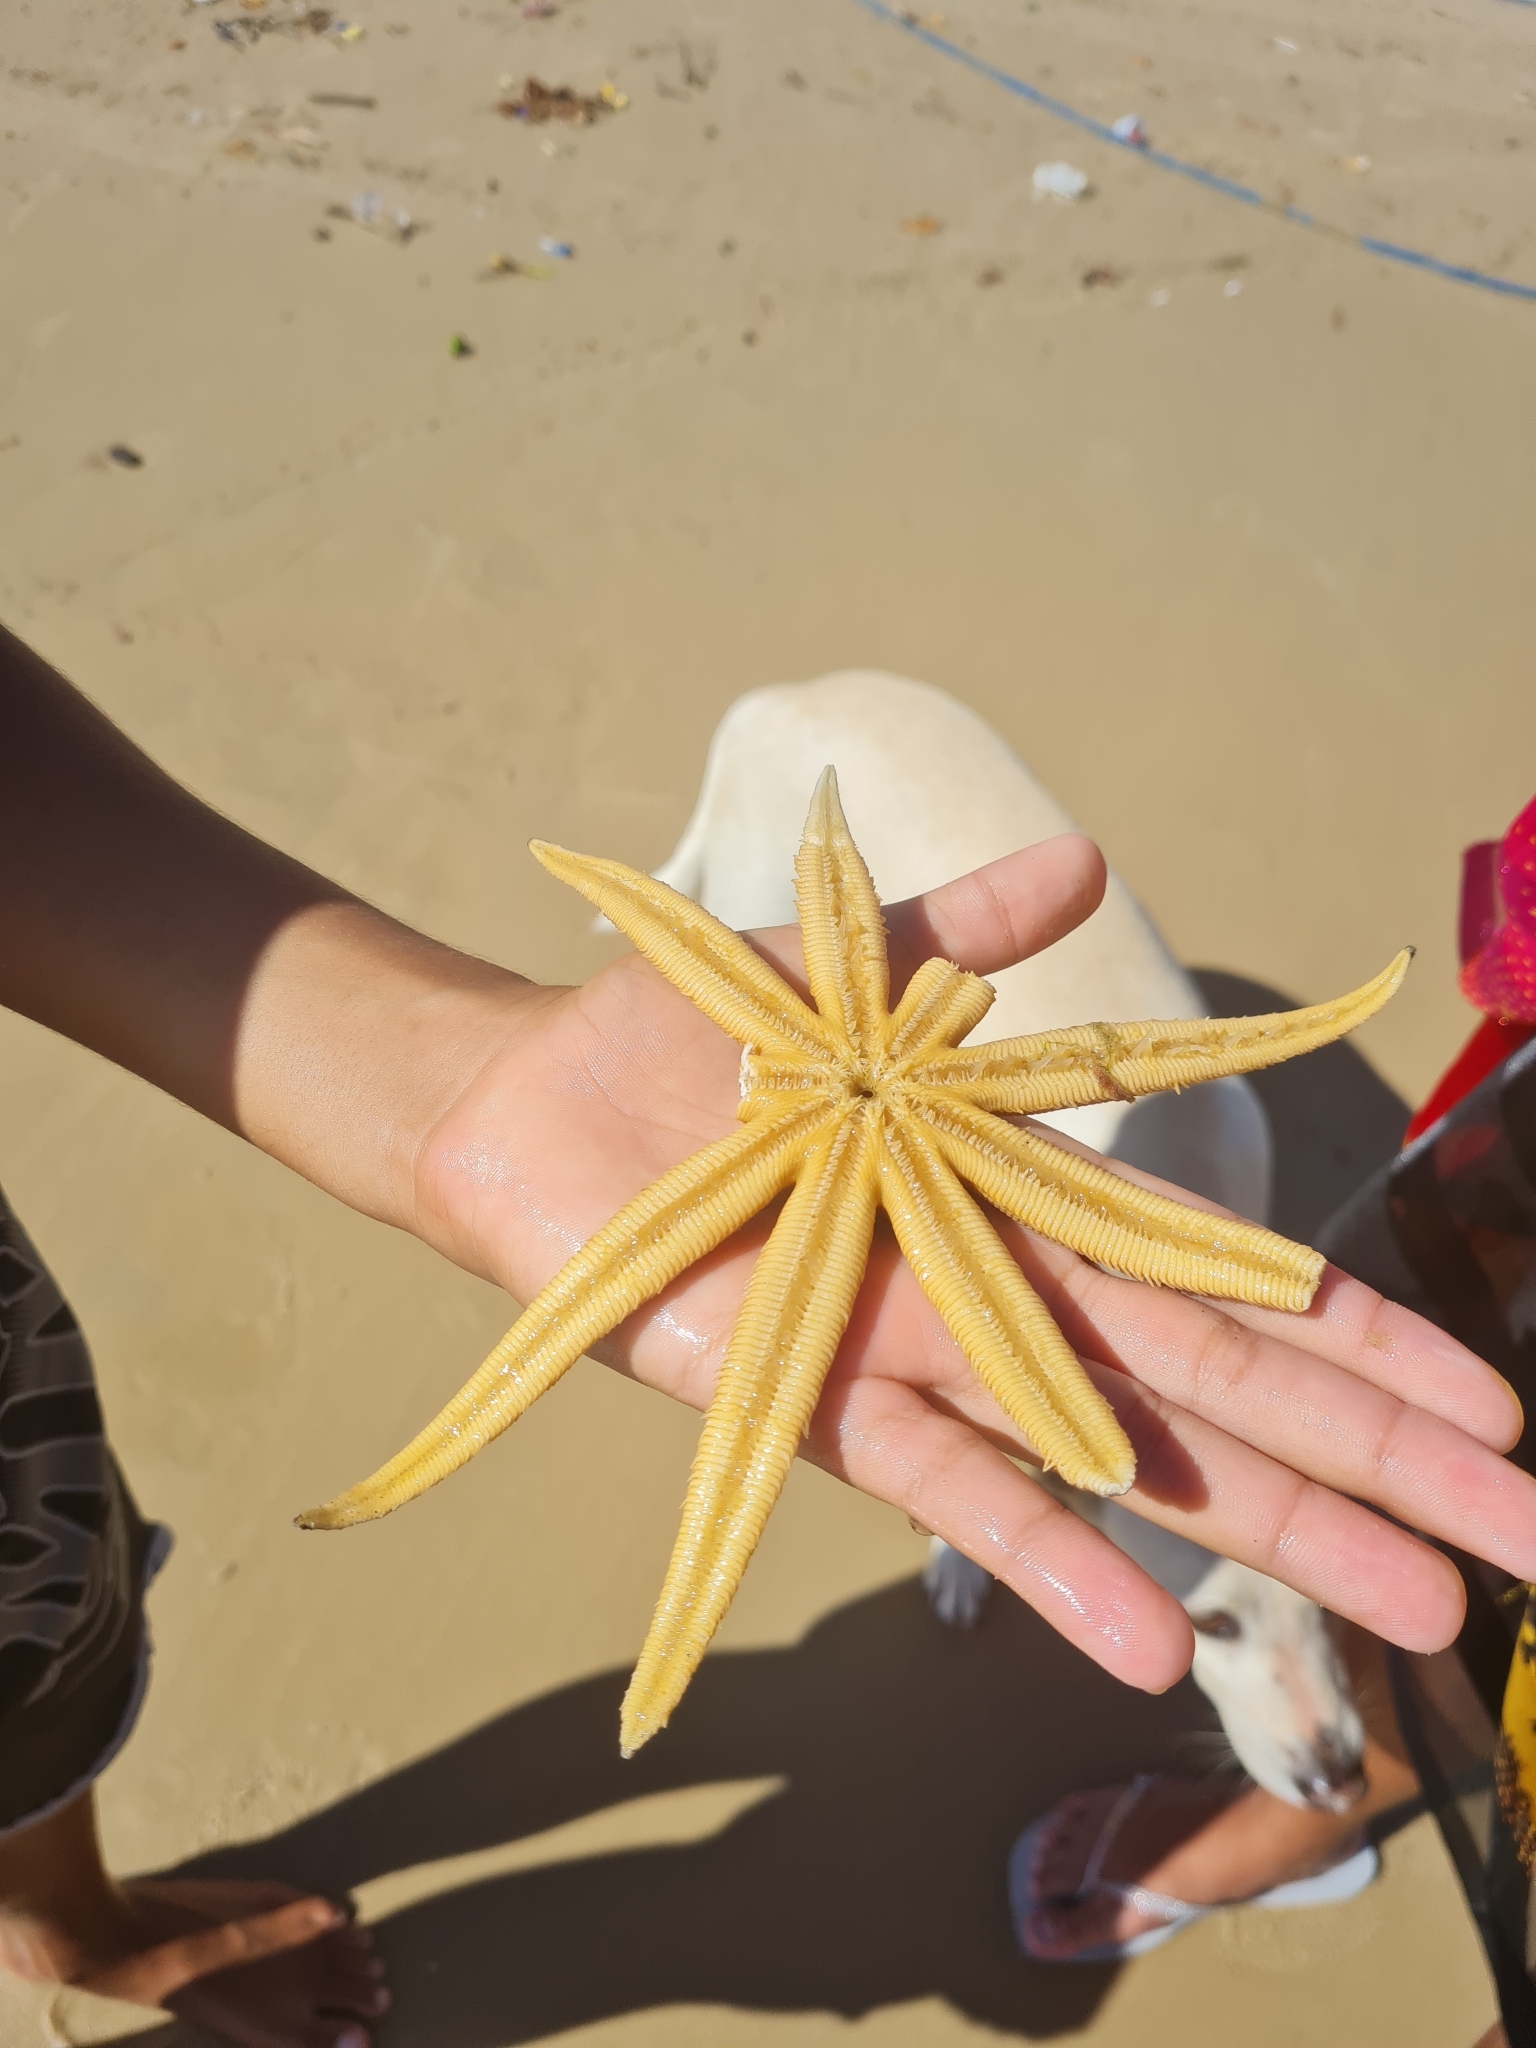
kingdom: Animalia
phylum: Echinodermata
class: Asteroidea
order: Paxillosida
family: Luidiidae
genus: Luidia
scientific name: Luidia senegalensis
